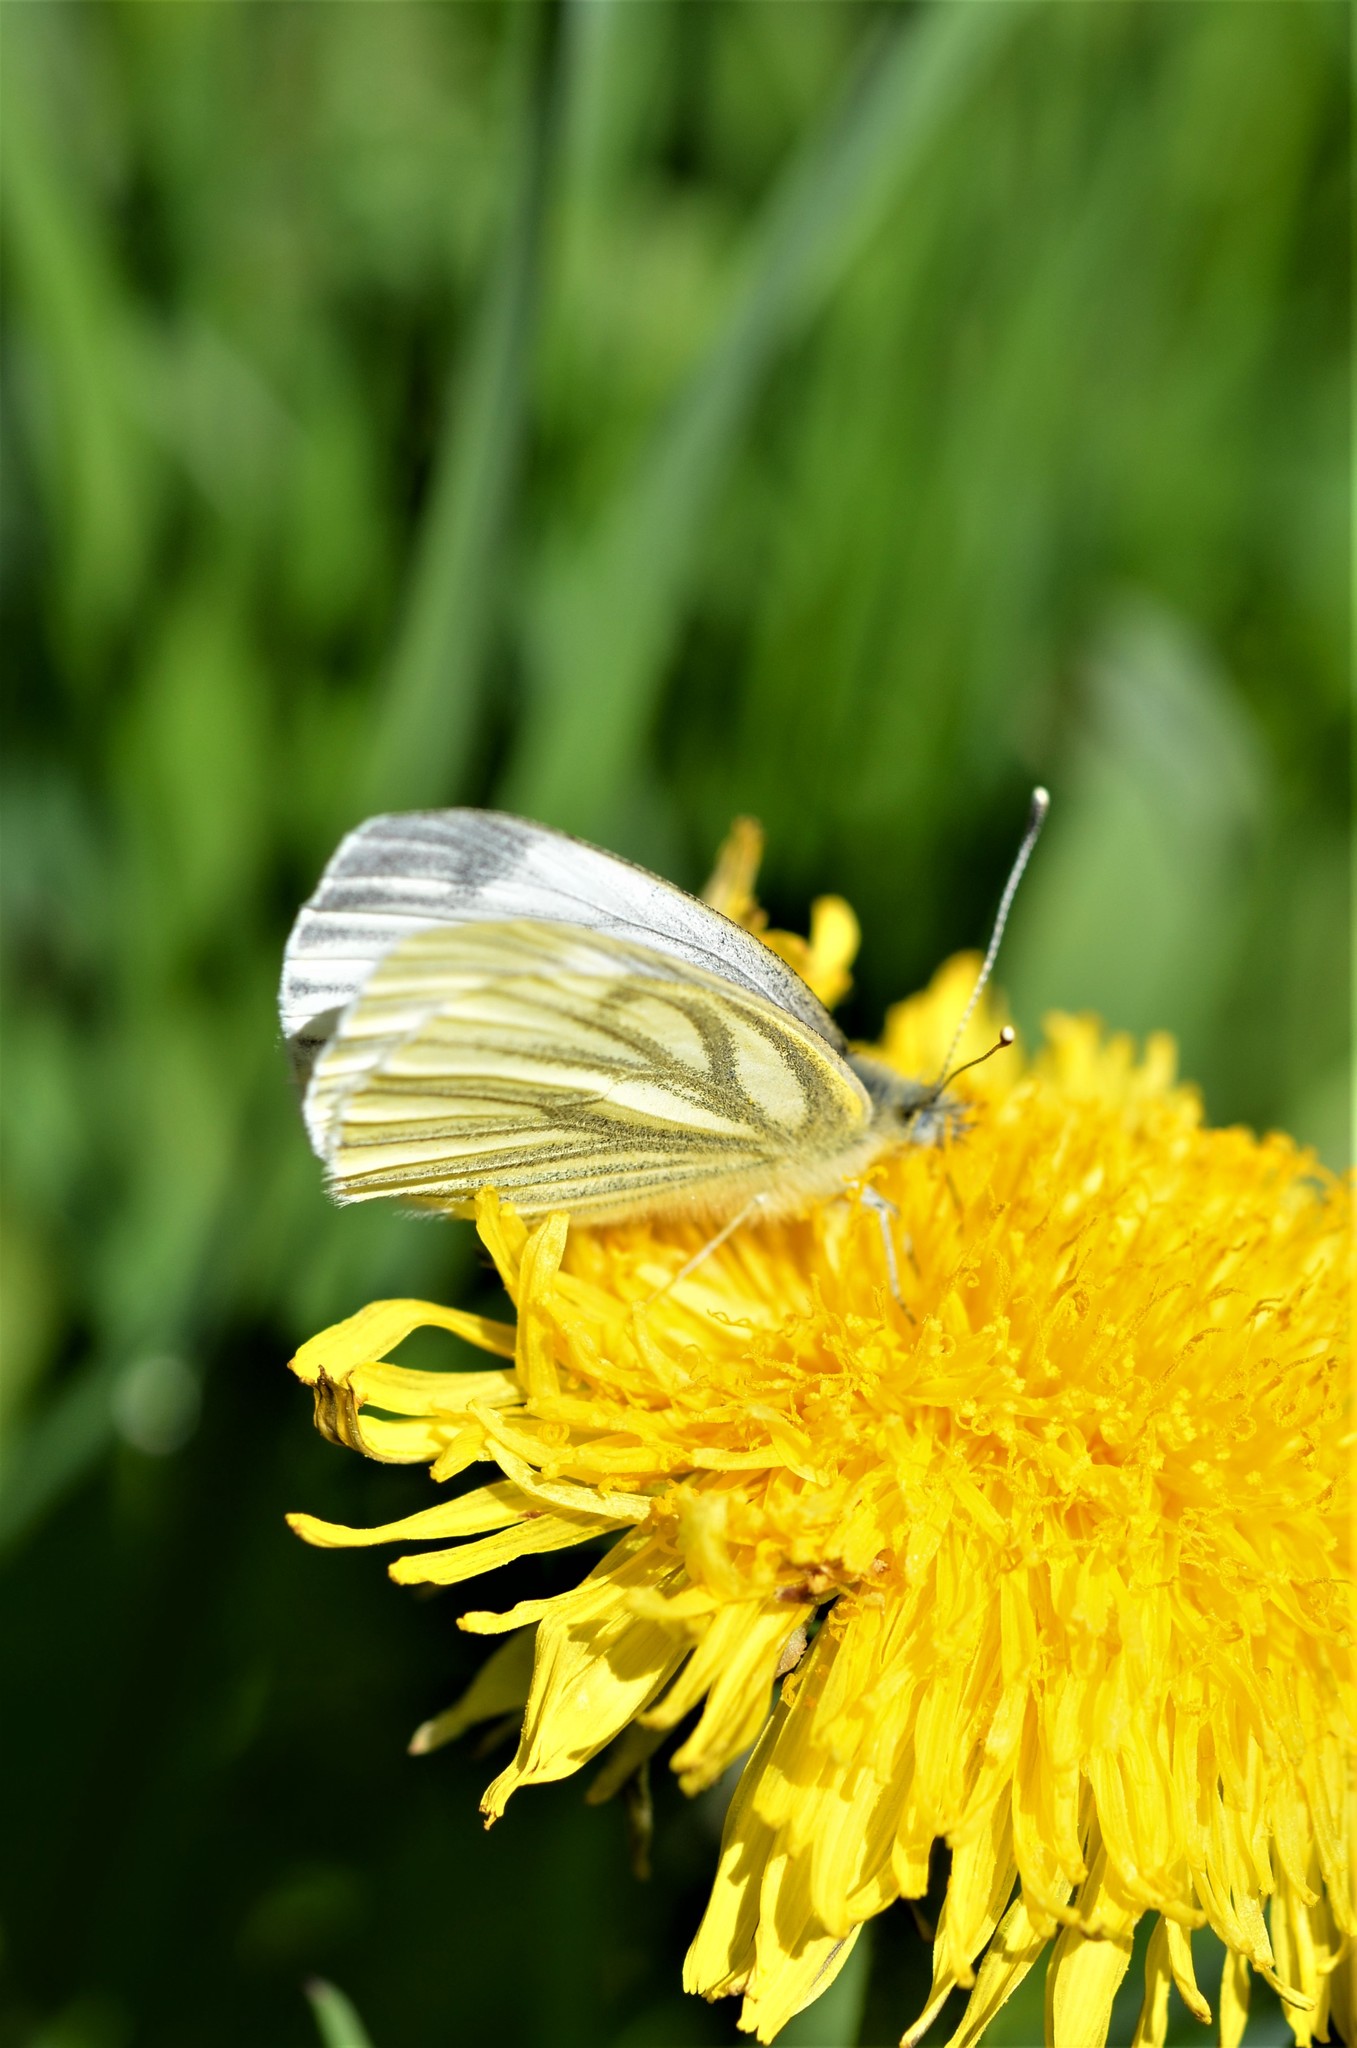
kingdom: Animalia
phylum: Arthropoda
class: Insecta
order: Lepidoptera
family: Pieridae
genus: Pieris
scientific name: Pieris napi
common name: Green-veined white
